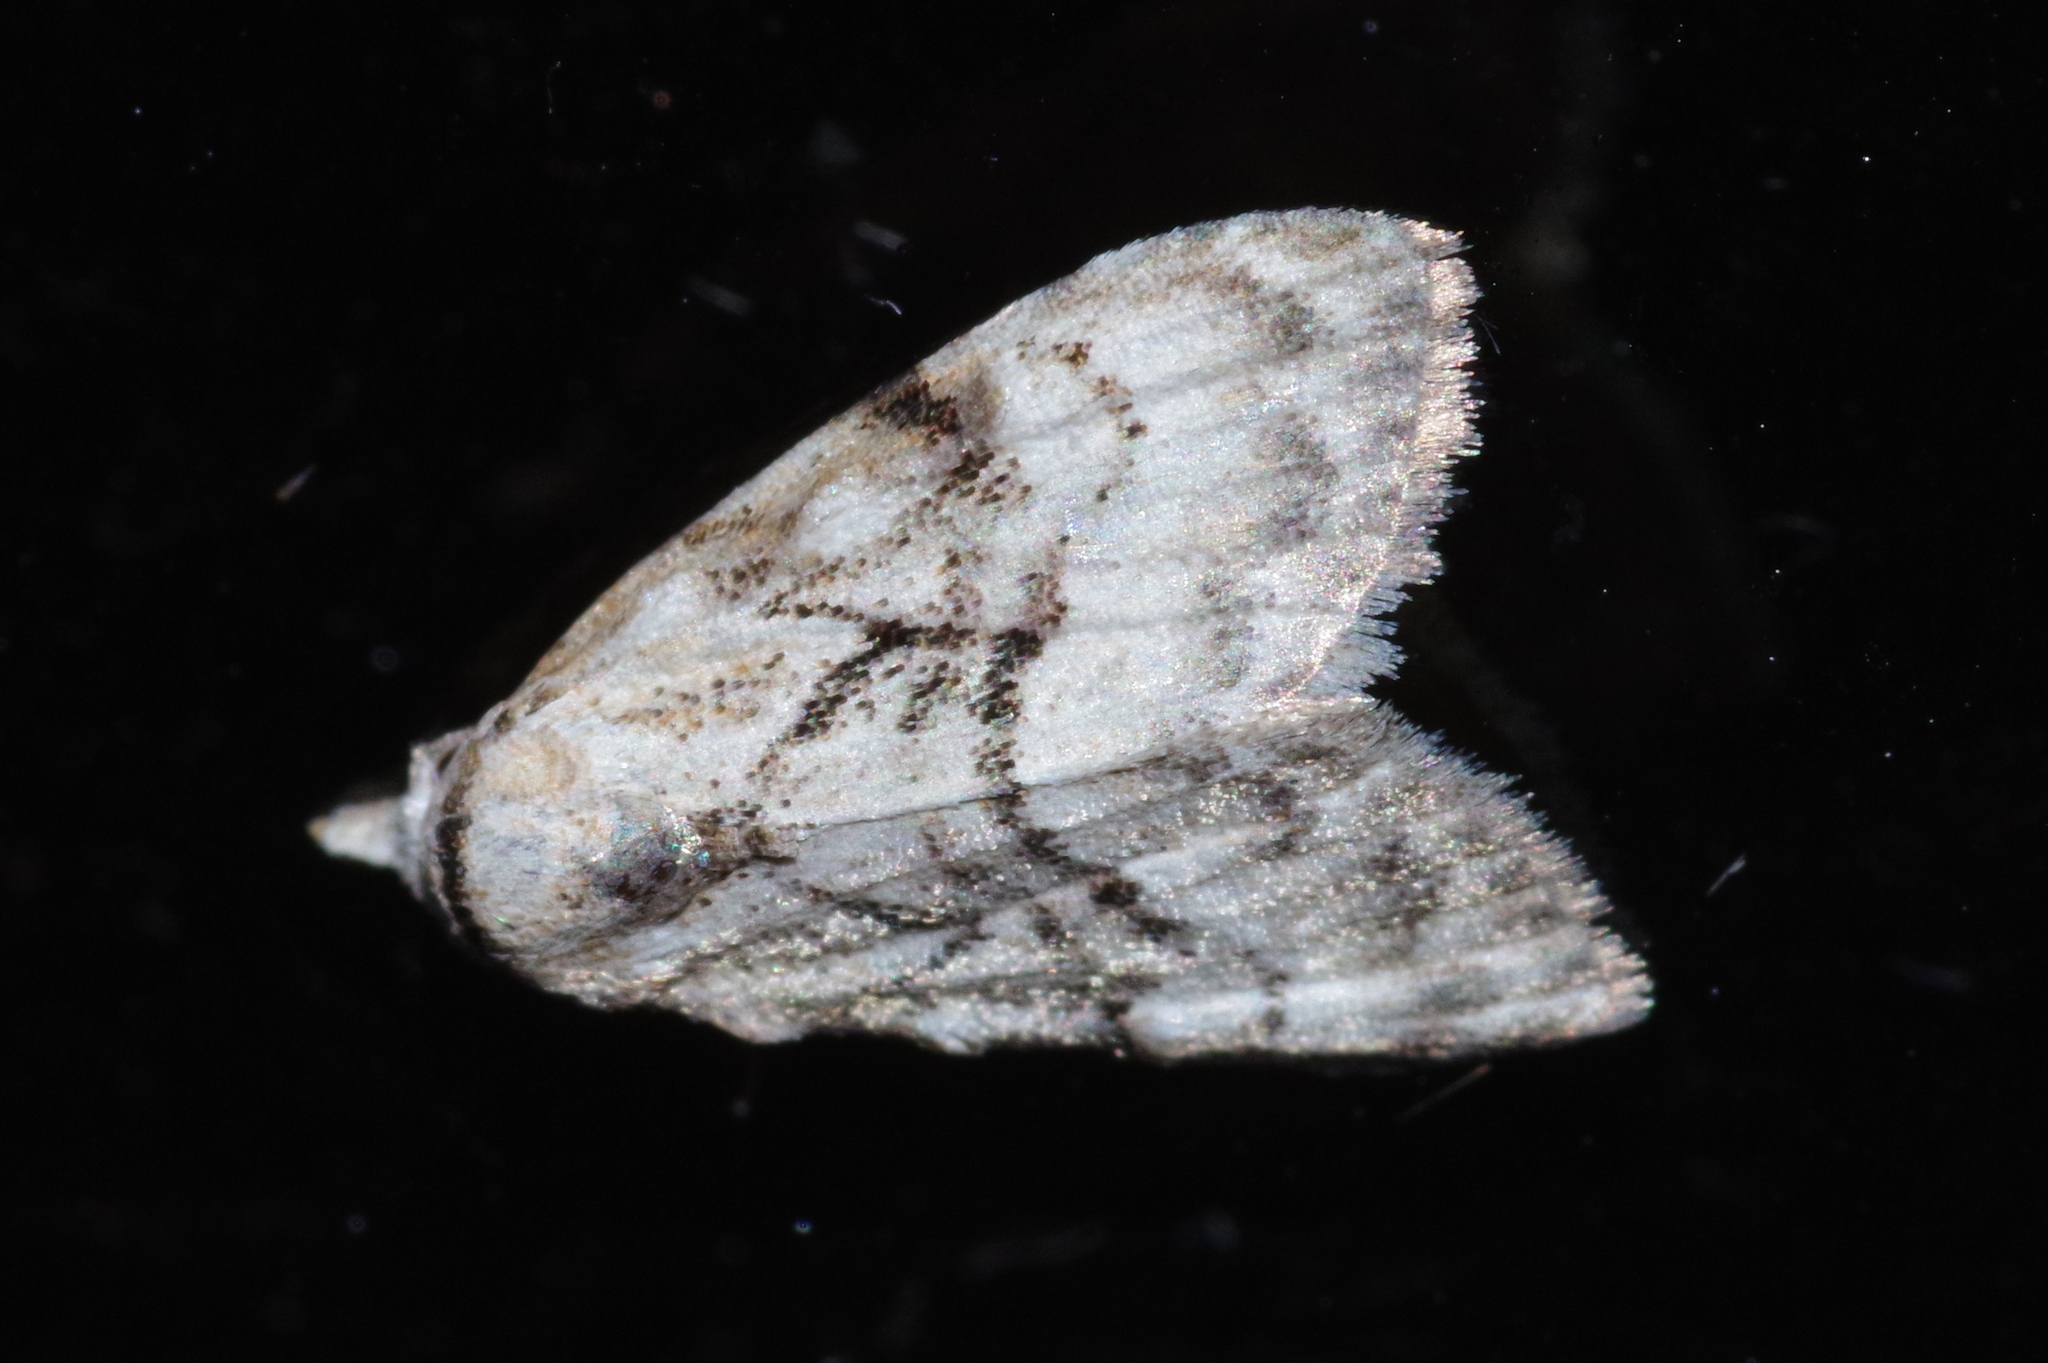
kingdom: Animalia
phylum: Arthropoda
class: Insecta
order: Lepidoptera
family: Nolidae
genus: Nola
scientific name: Nola infralba
